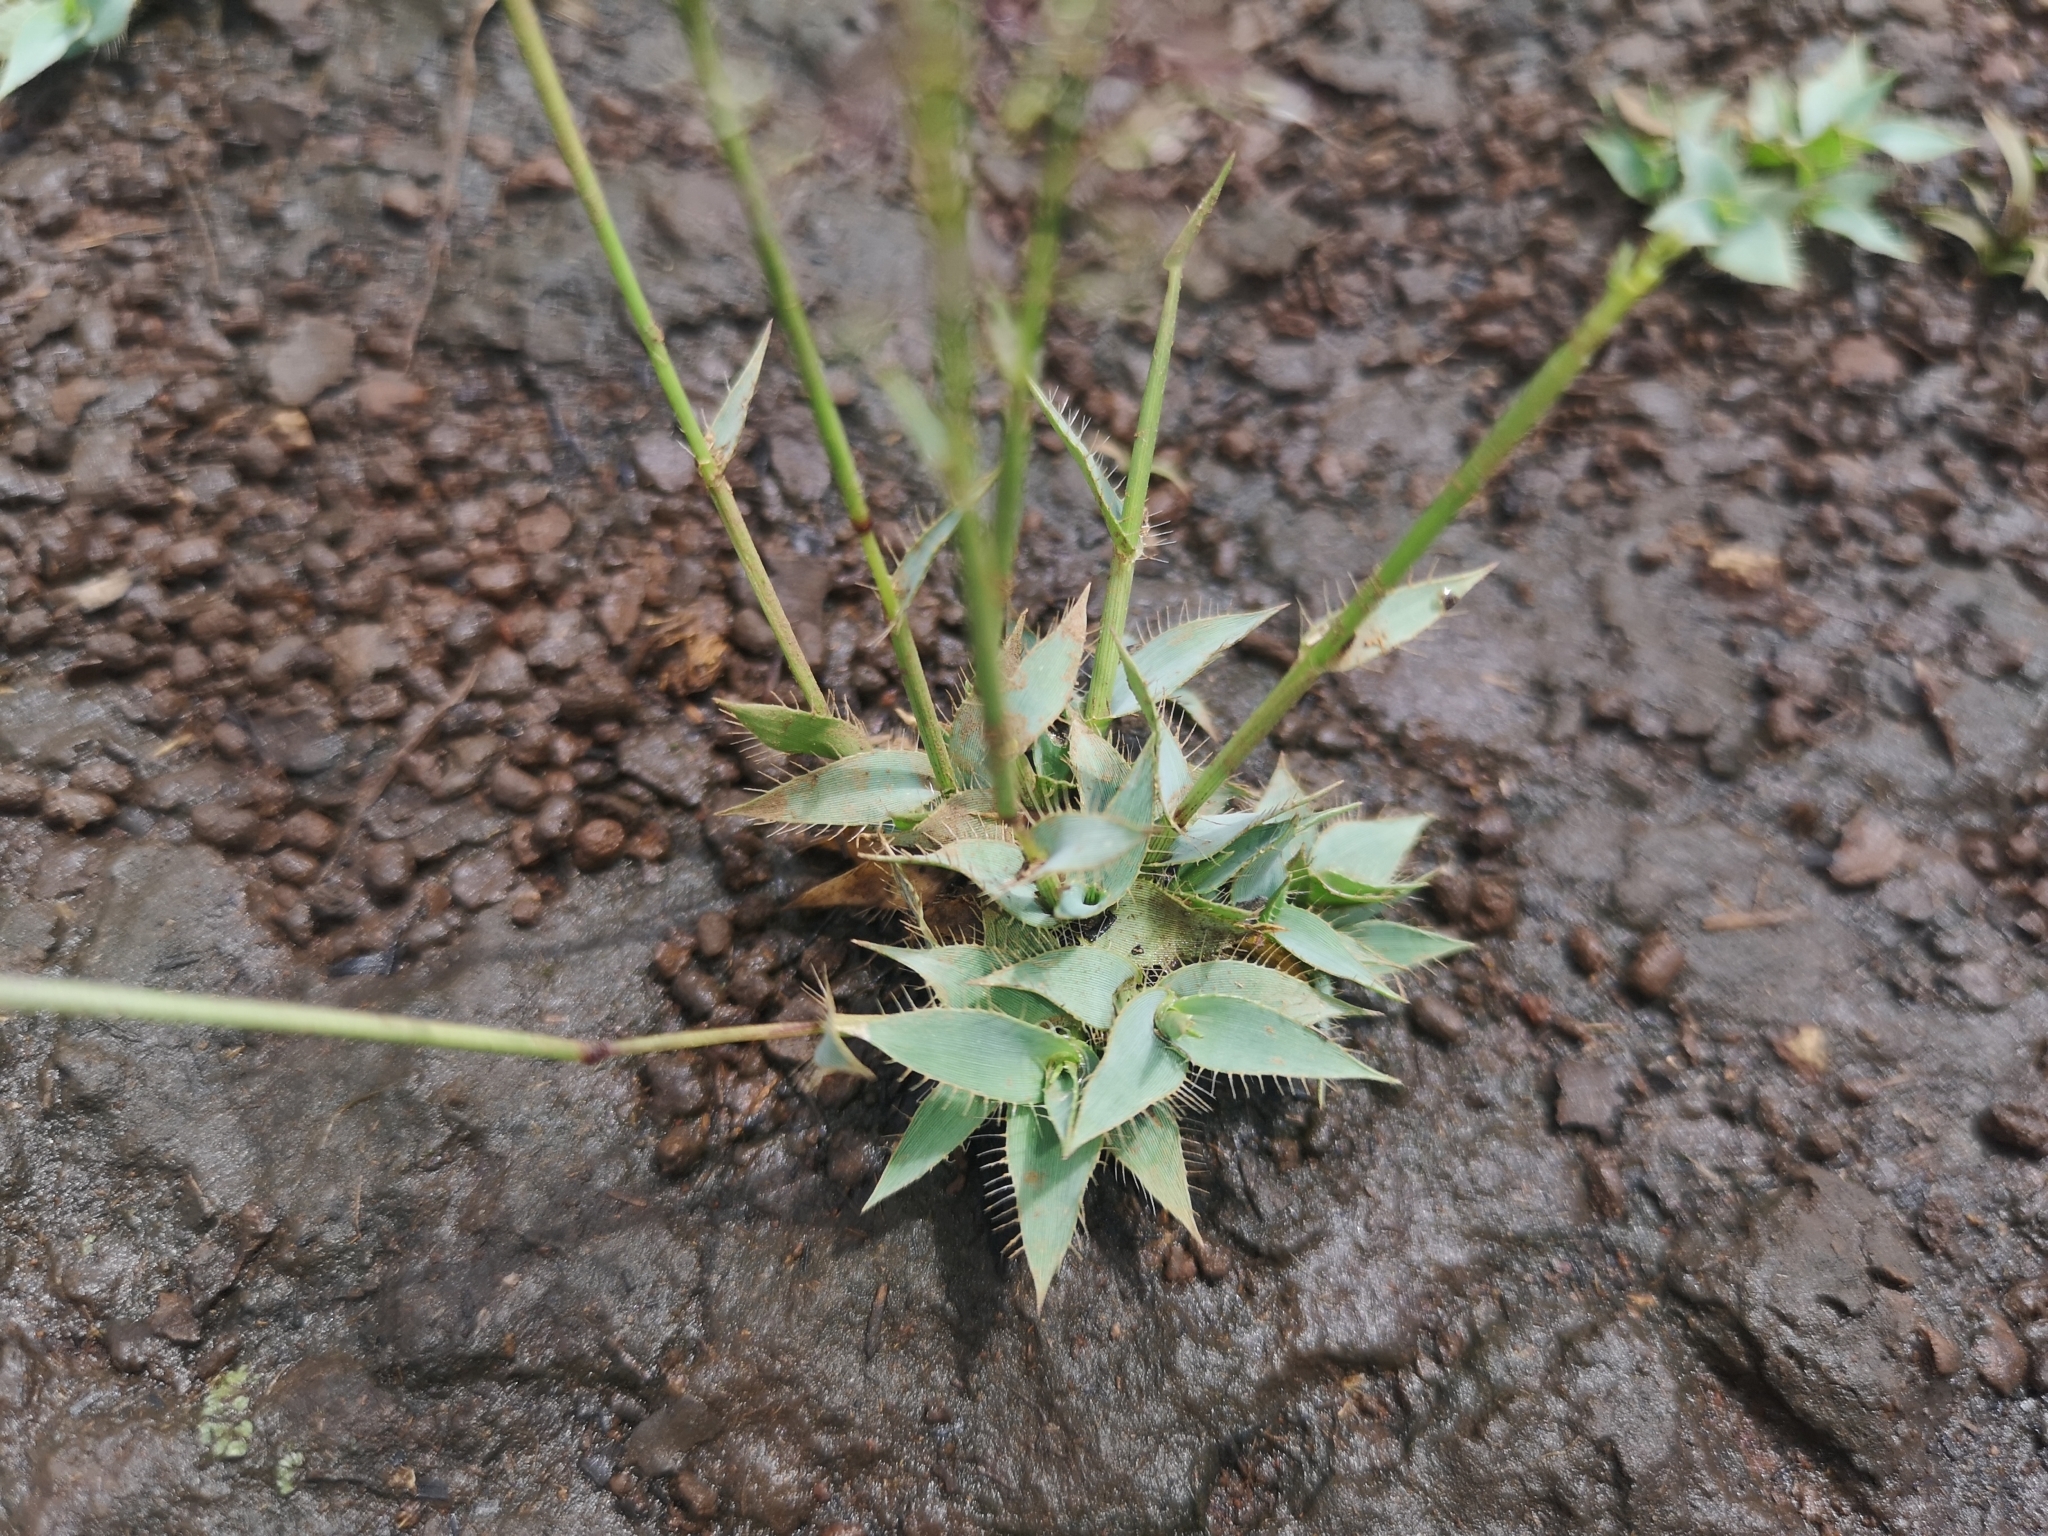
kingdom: Plantae
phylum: Tracheophyta
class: Liliopsida
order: Poales
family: Poaceae
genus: Sporobolus
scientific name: Sporobolus discosporus
